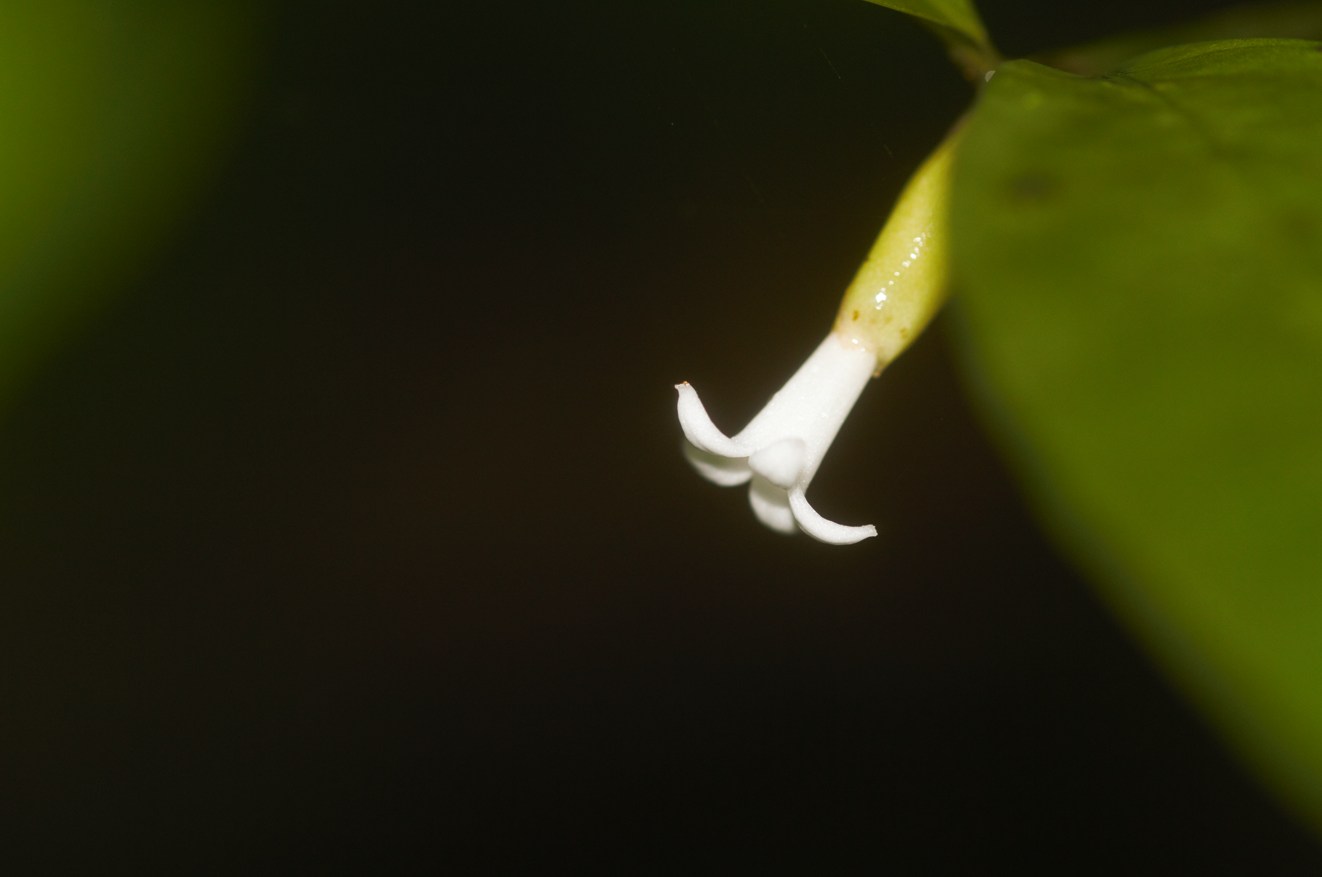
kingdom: Plantae
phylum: Tracheophyta
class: Magnoliopsida
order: Gentianales
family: Rubiaceae
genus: Palicourea
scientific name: Palicourea oblonga
